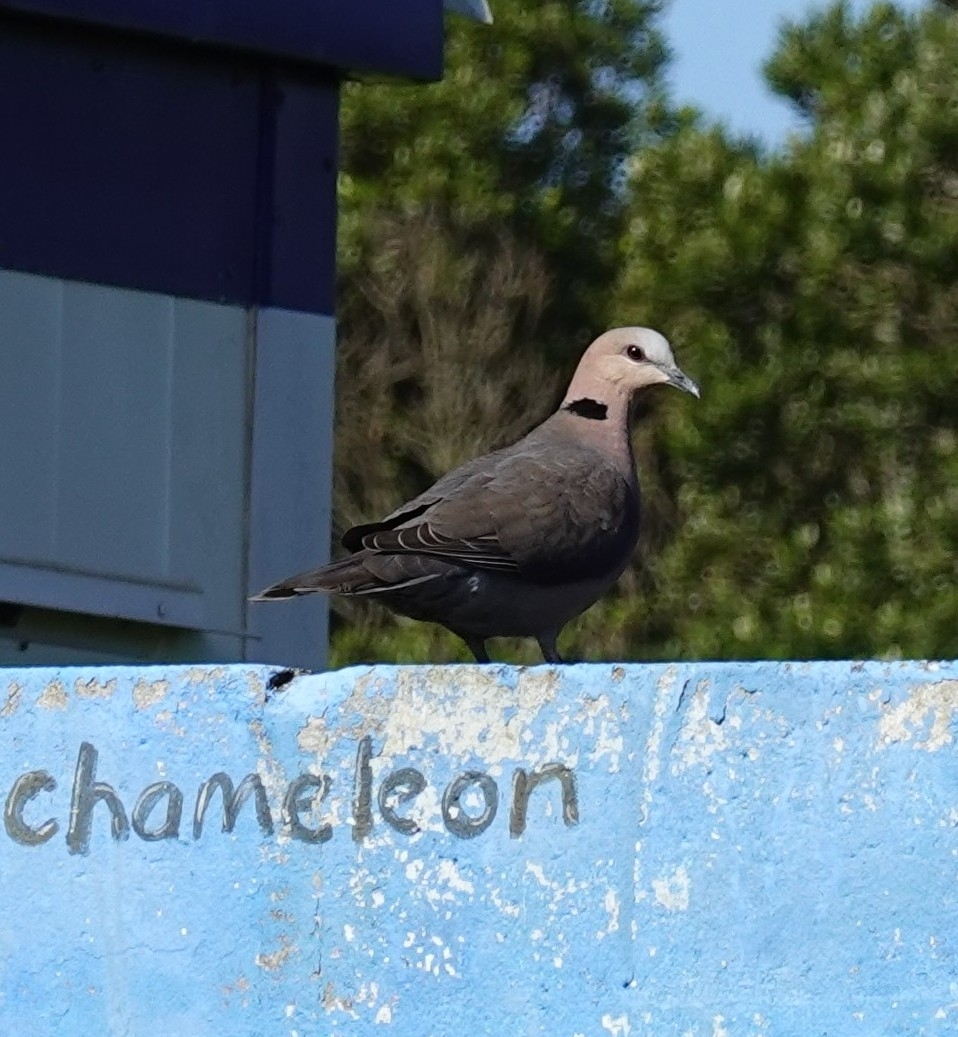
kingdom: Animalia
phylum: Chordata
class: Aves
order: Columbiformes
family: Columbidae
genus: Streptopelia
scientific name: Streptopelia semitorquata
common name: Red-eyed dove
